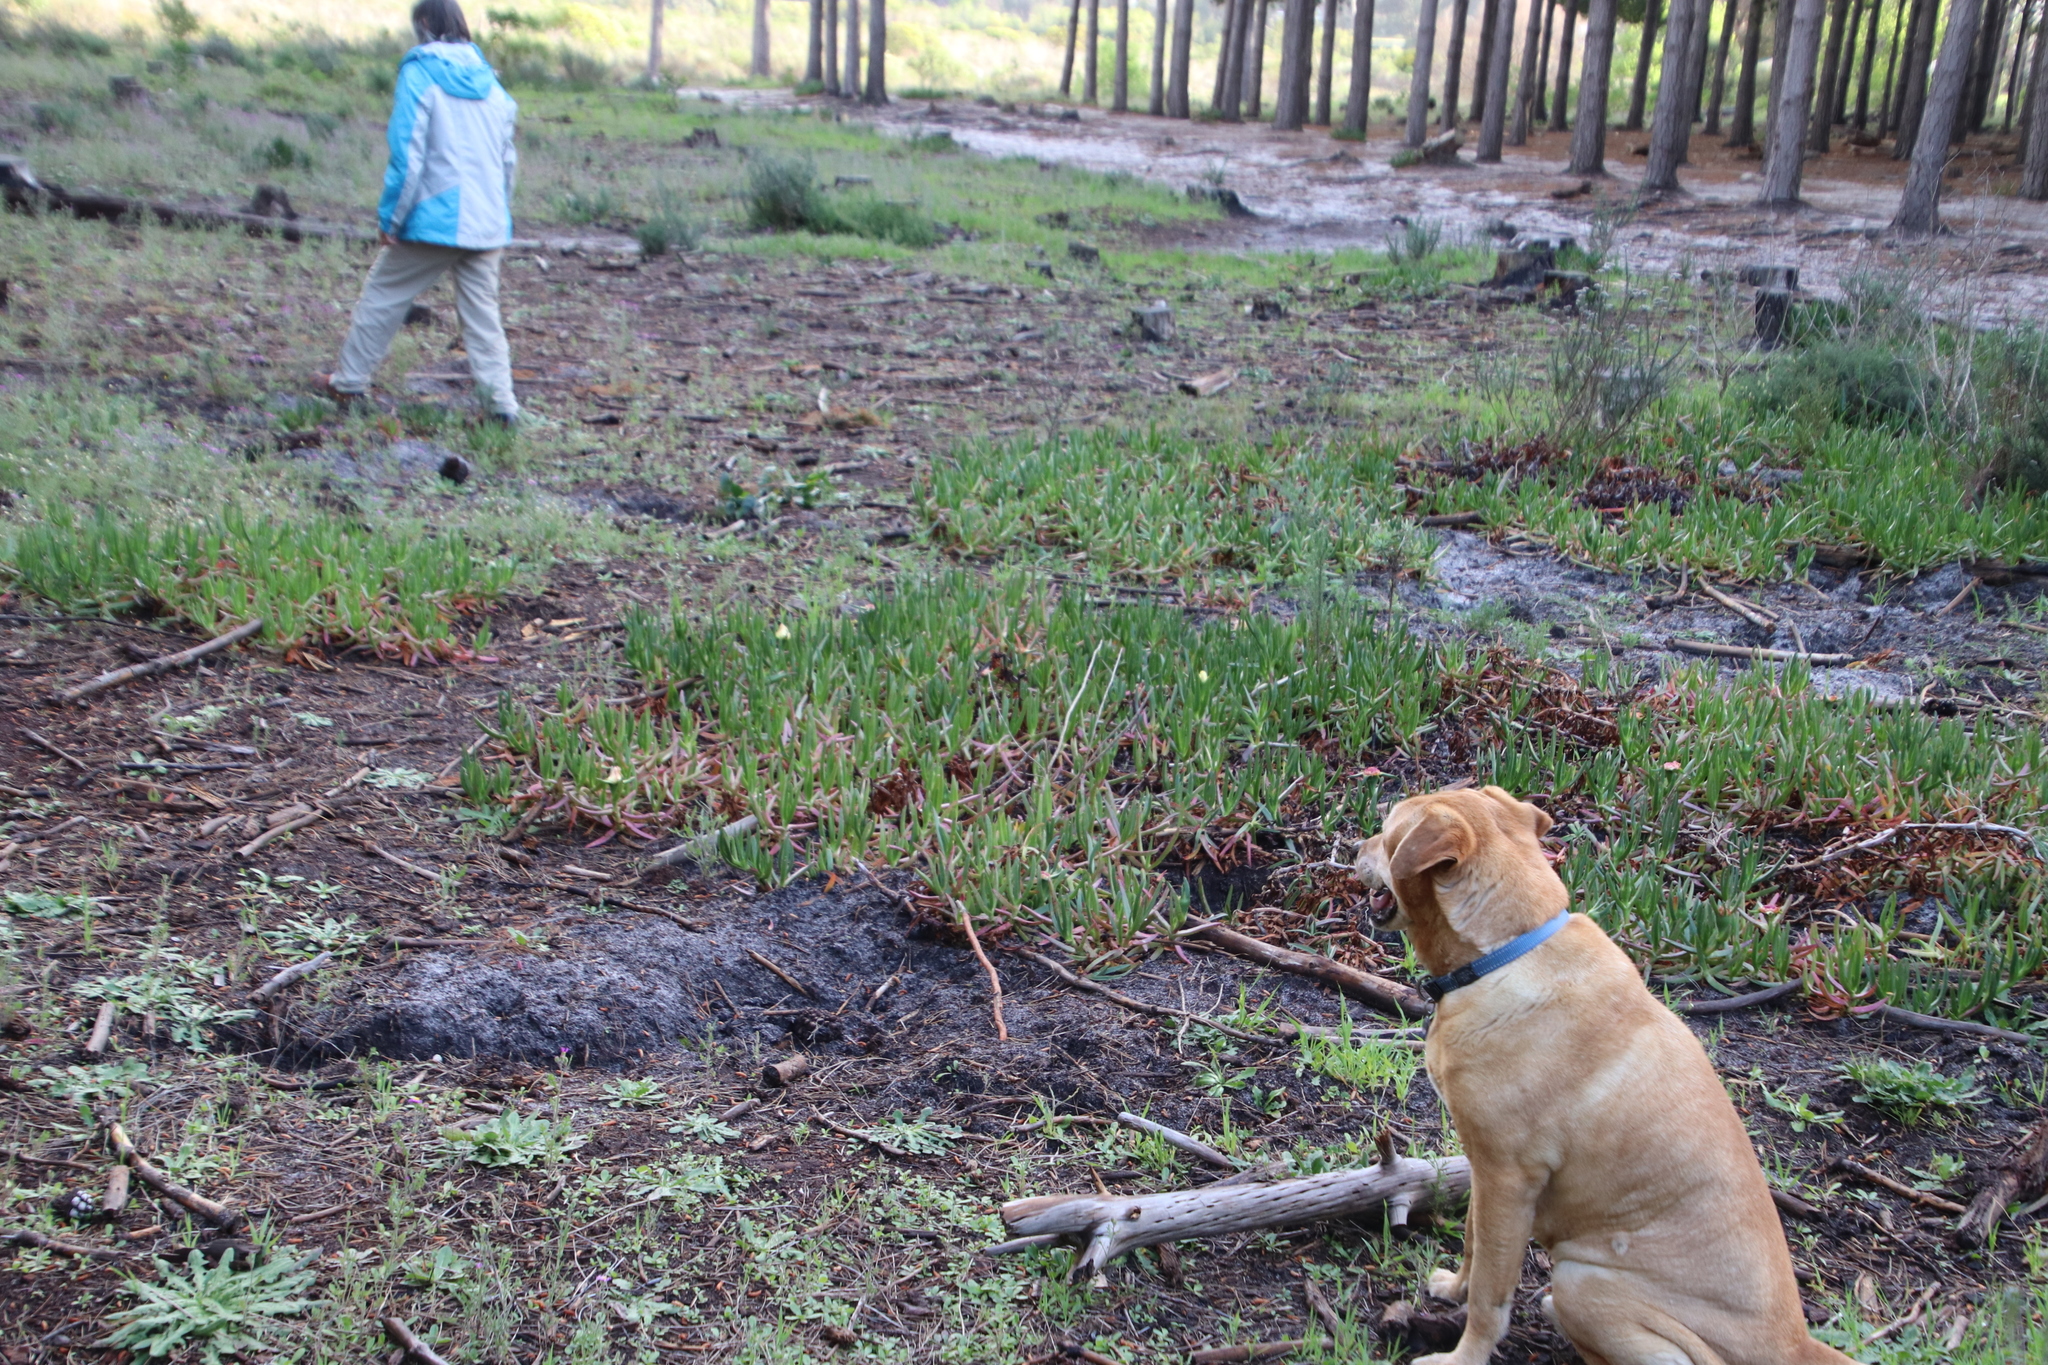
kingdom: Plantae
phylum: Tracheophyta
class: Magnoliopsida
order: Caryophyllales
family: Aizoaceae
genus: Carpobrotus
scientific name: Carpobrotus edulis
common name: Hottentot-fig
